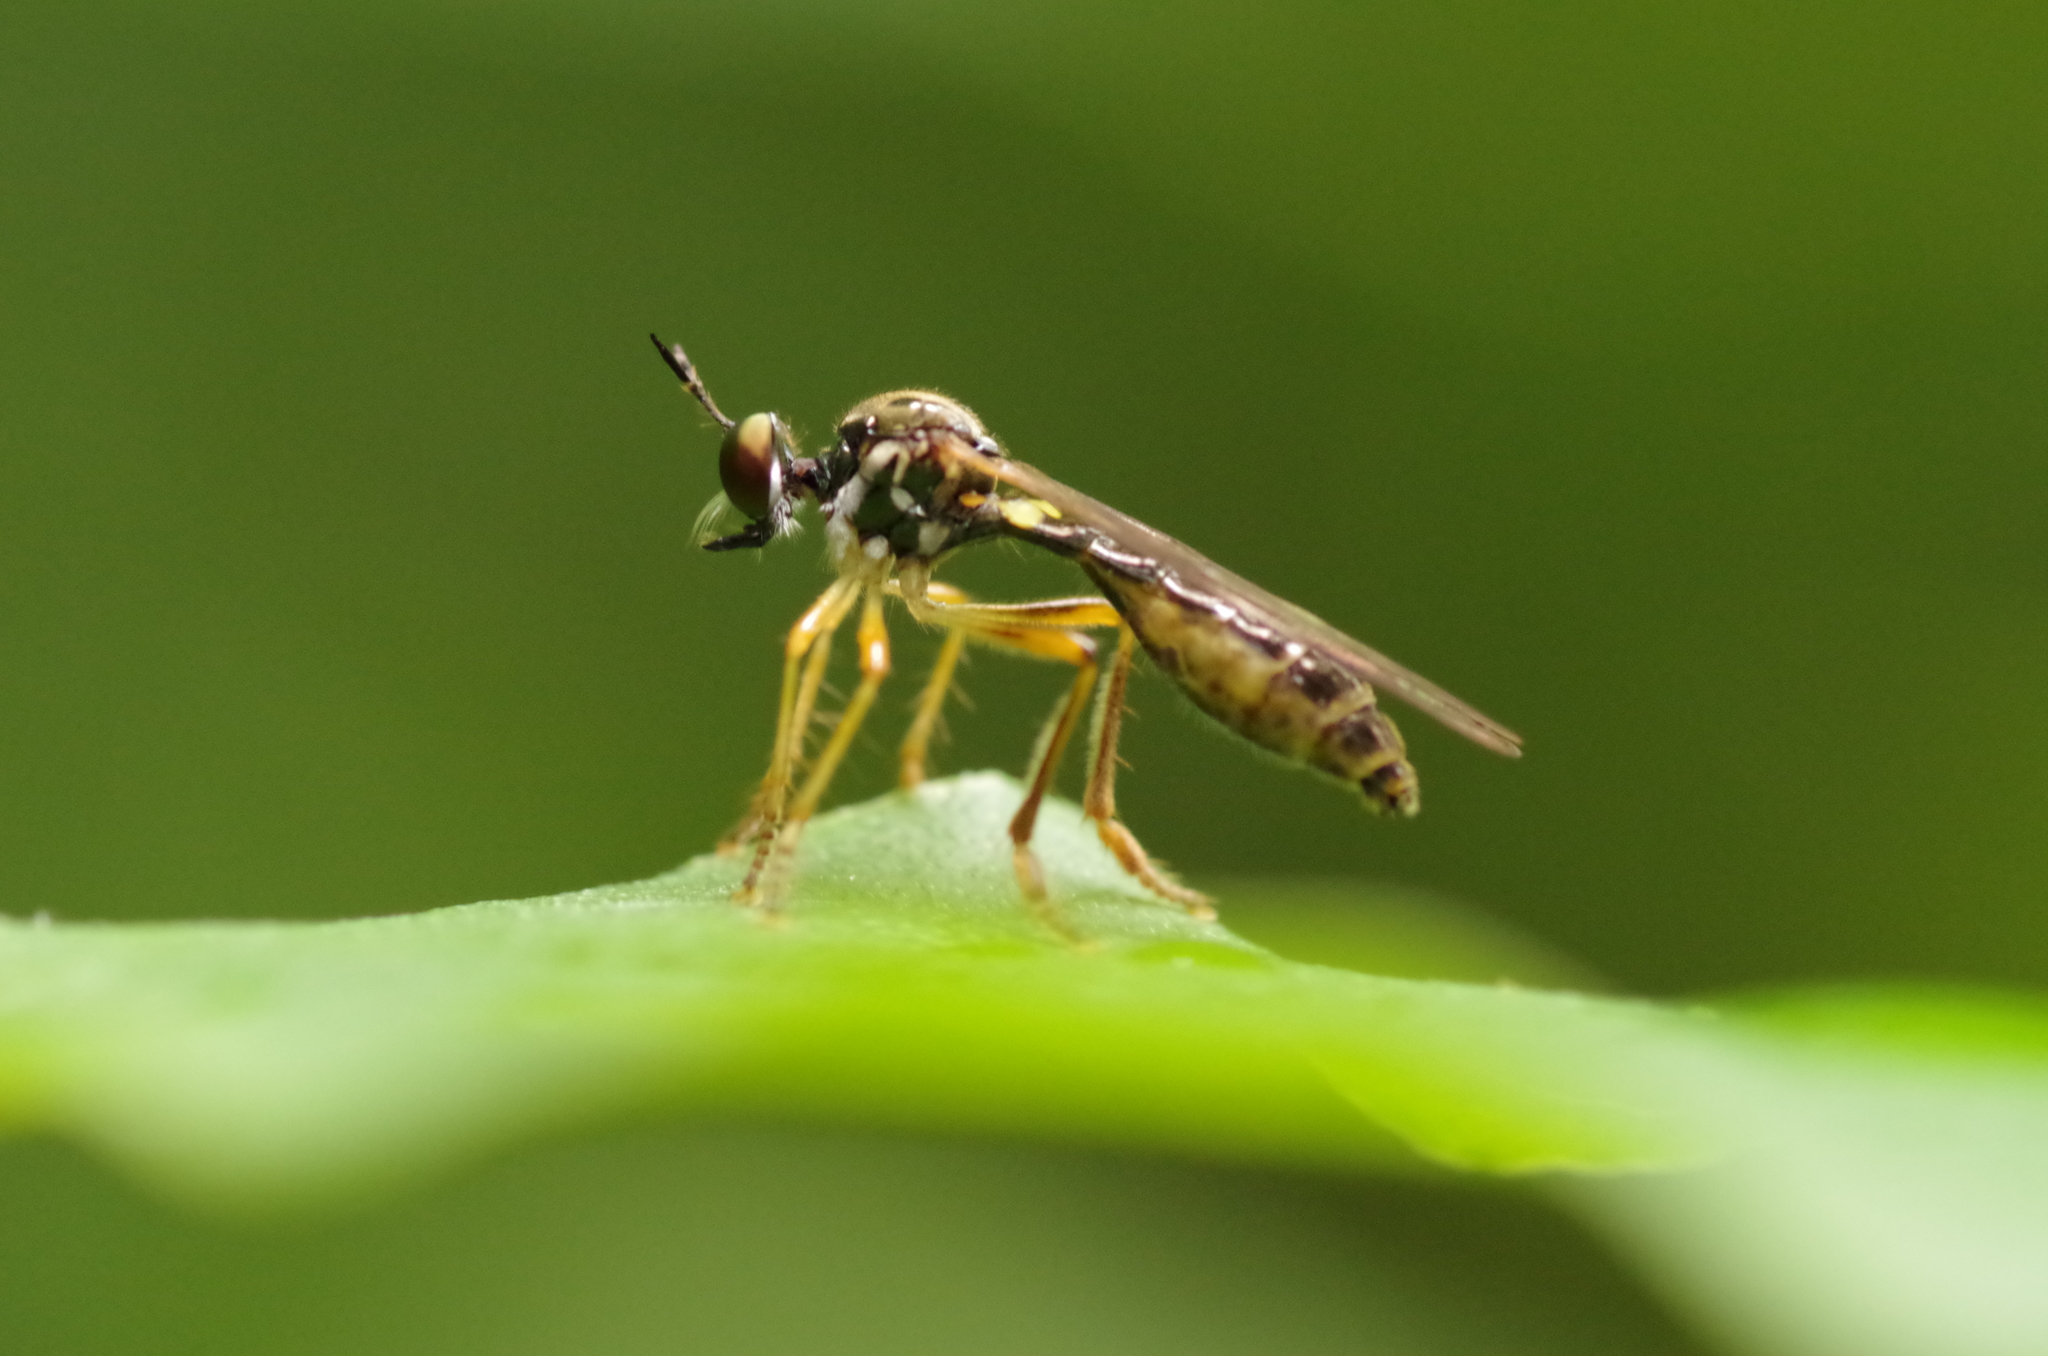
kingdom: Animalia
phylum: Arthropoda
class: Insecta
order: Diptera
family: Asilidae
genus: Dioctria
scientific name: Dioctria linearis
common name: Small yellow-legged robberfly
